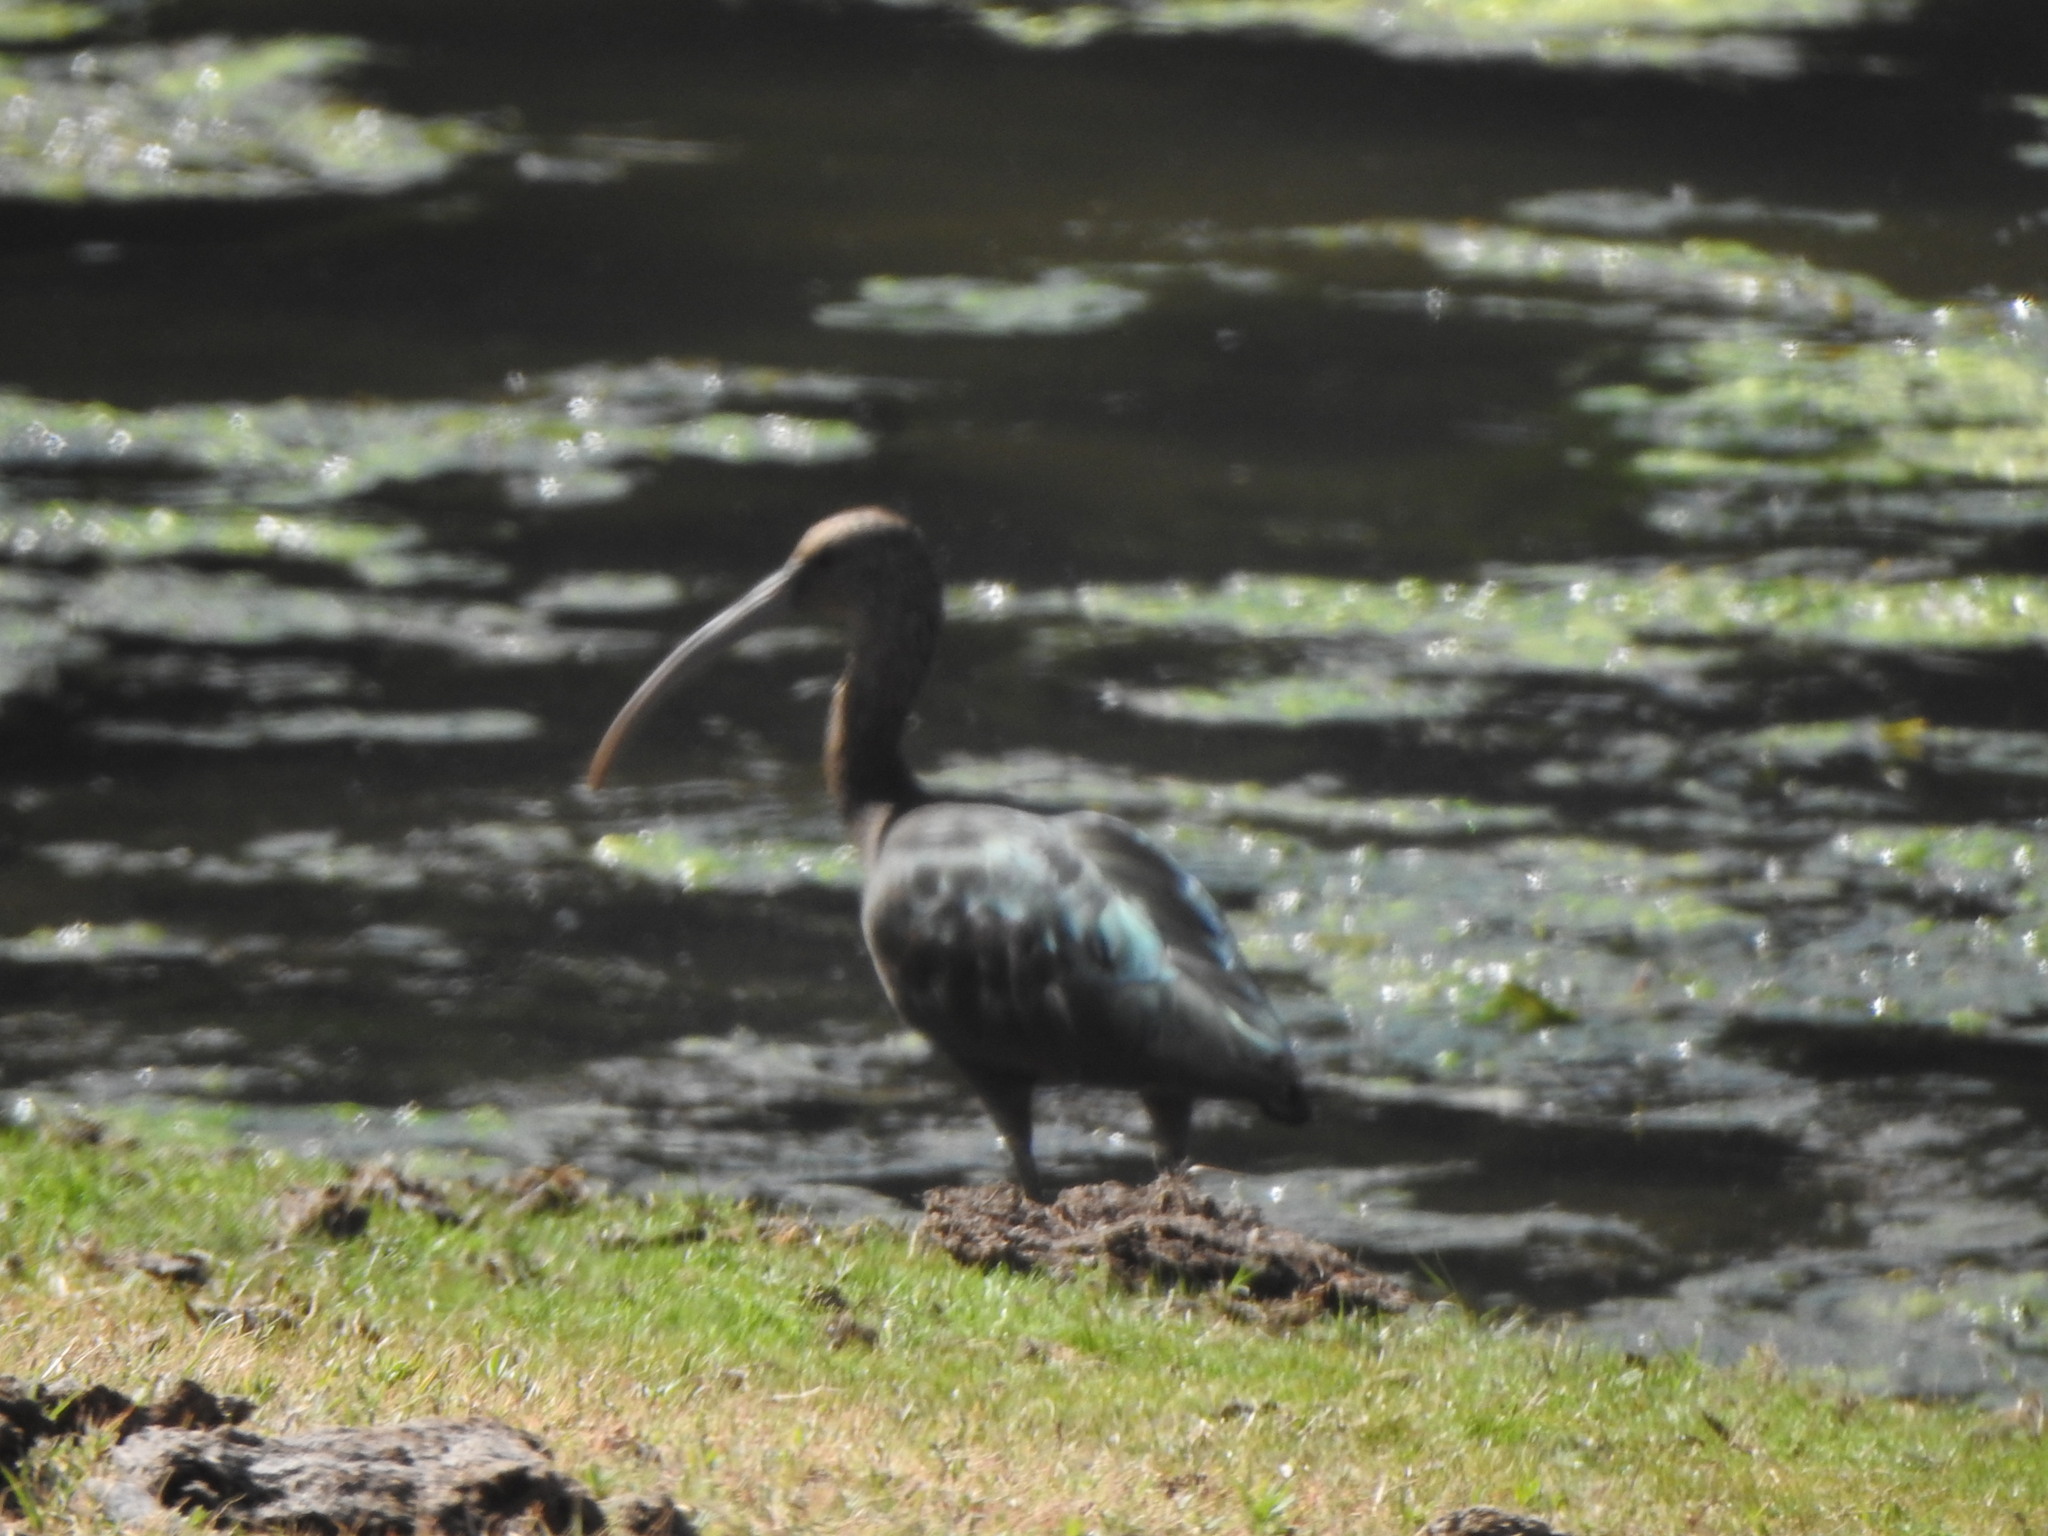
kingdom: Animalia
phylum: Chordata
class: Aves
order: Pelecaniformes
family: Threskiornithidae
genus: Plegadis
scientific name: Plegadis chihi
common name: White-faced ibis
